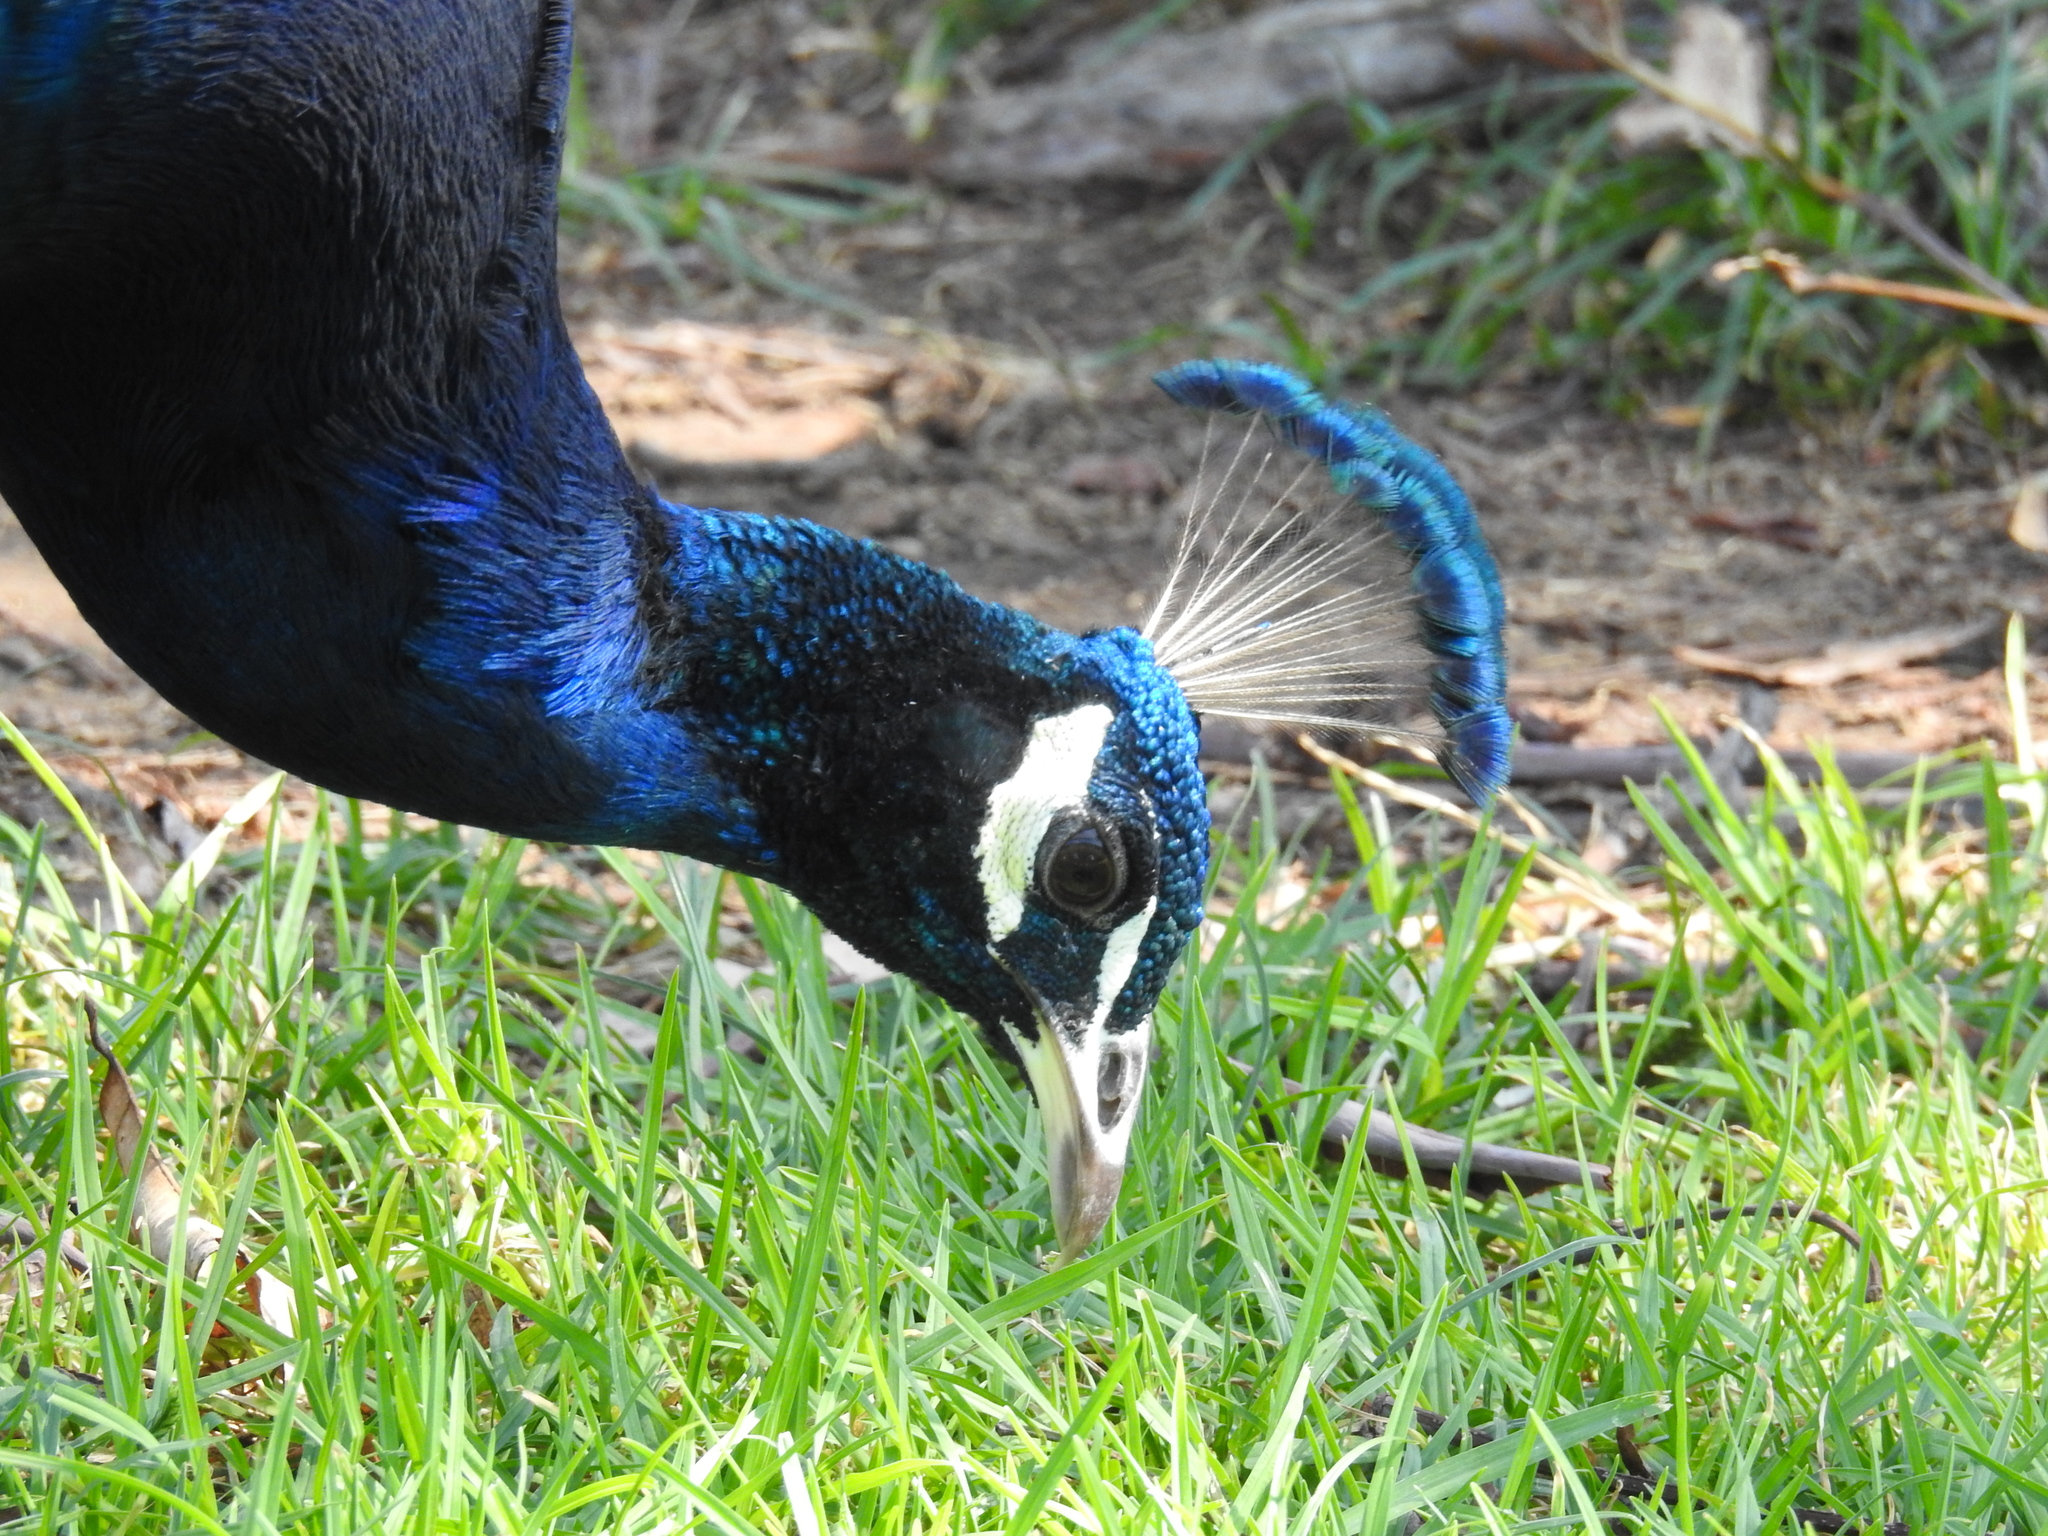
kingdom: Animalia
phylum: Chordata
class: Aves
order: Galliformes
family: Phasianidae
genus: Pavo
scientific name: Pavo cristatus
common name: Indian peafowl
